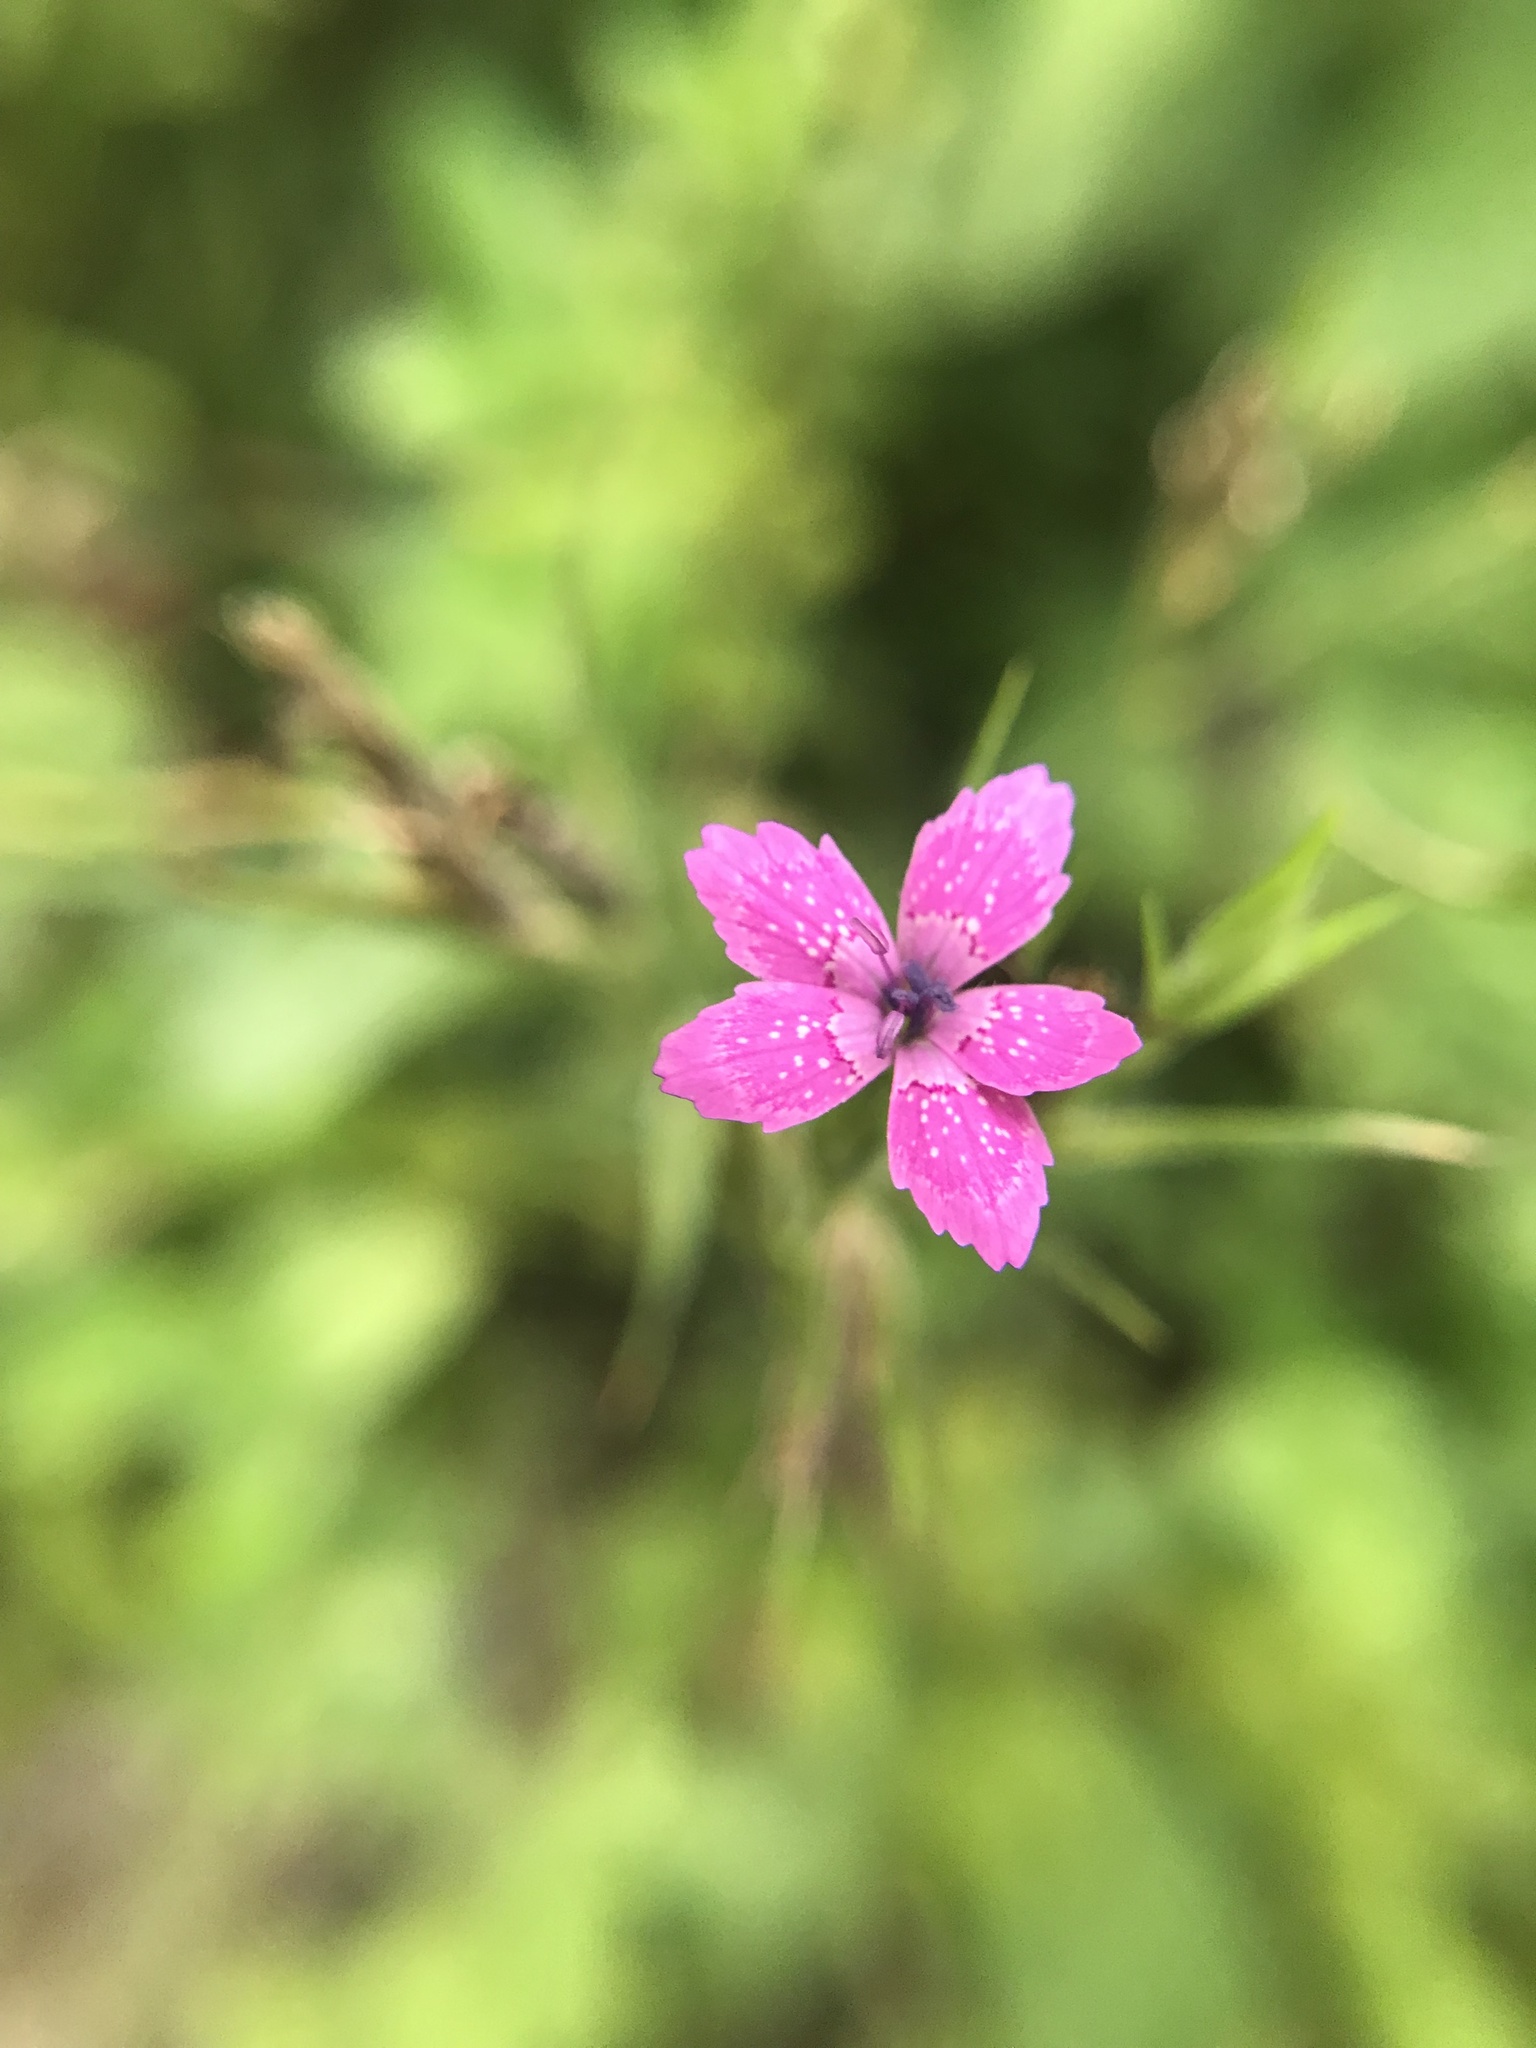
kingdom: Plantae
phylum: Tracheophyta
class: Magnoliopsida
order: Caryophyllales
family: Caryophyllaceae
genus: Dianthus
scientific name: Dianthus armeria
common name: Deptford pink
